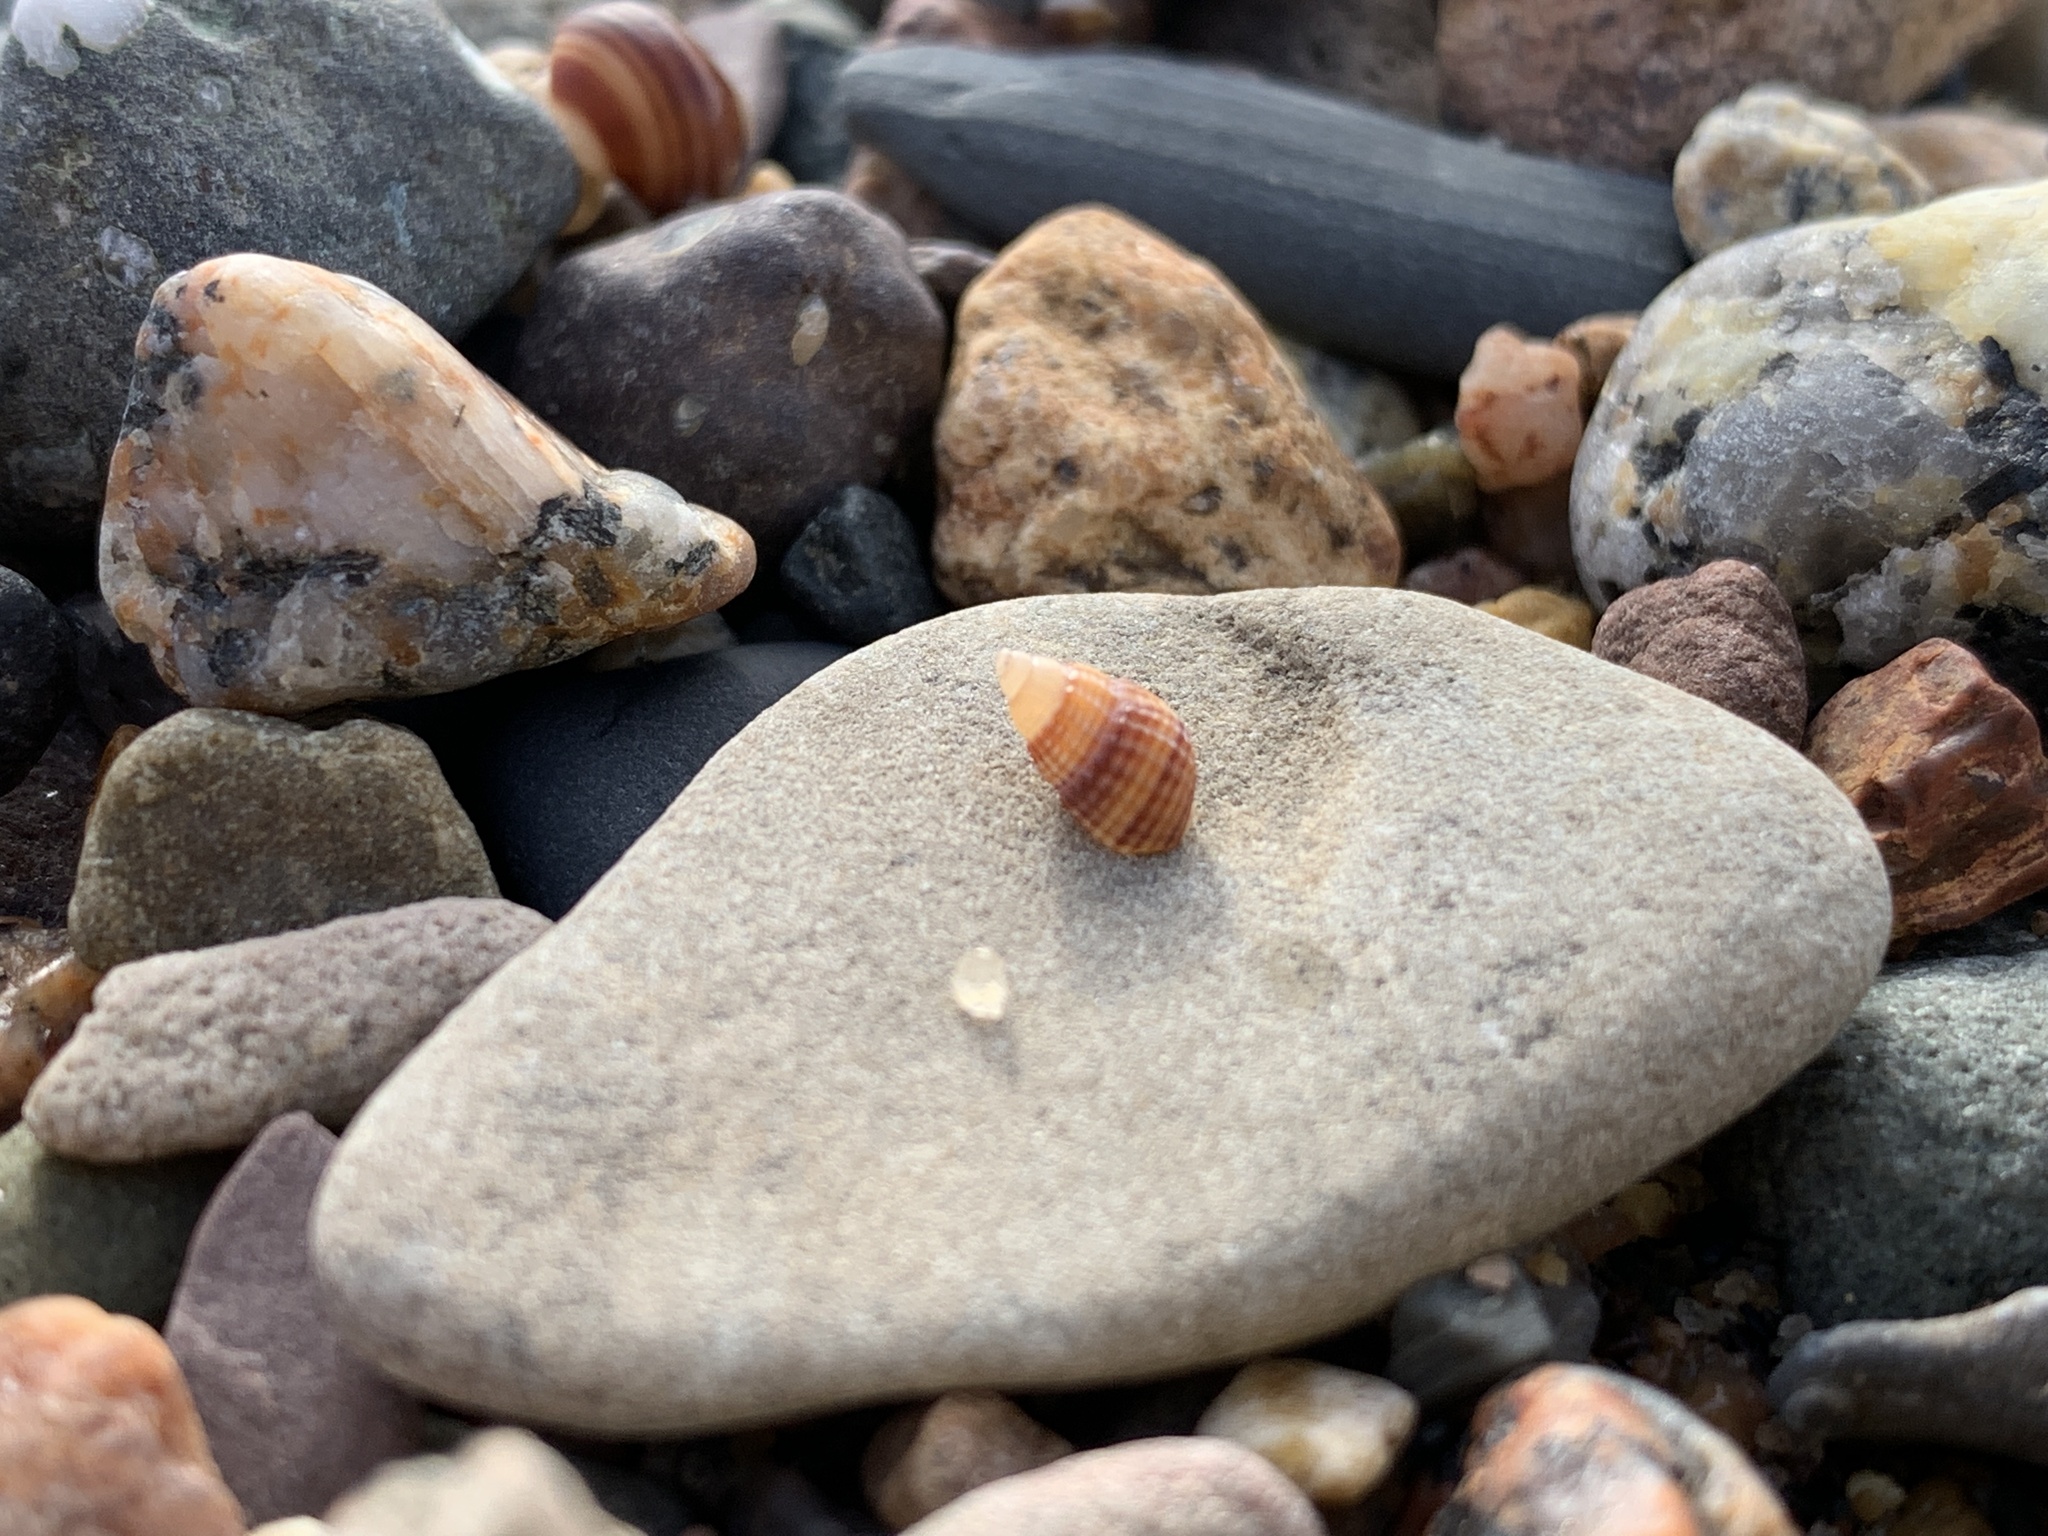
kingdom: Animalia
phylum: Mollusca
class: Gastropoda
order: Neogastropoda
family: Nassariidae
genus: Ilyanassa
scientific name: Ilyanassa trivittata
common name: Three-line mudsnail
